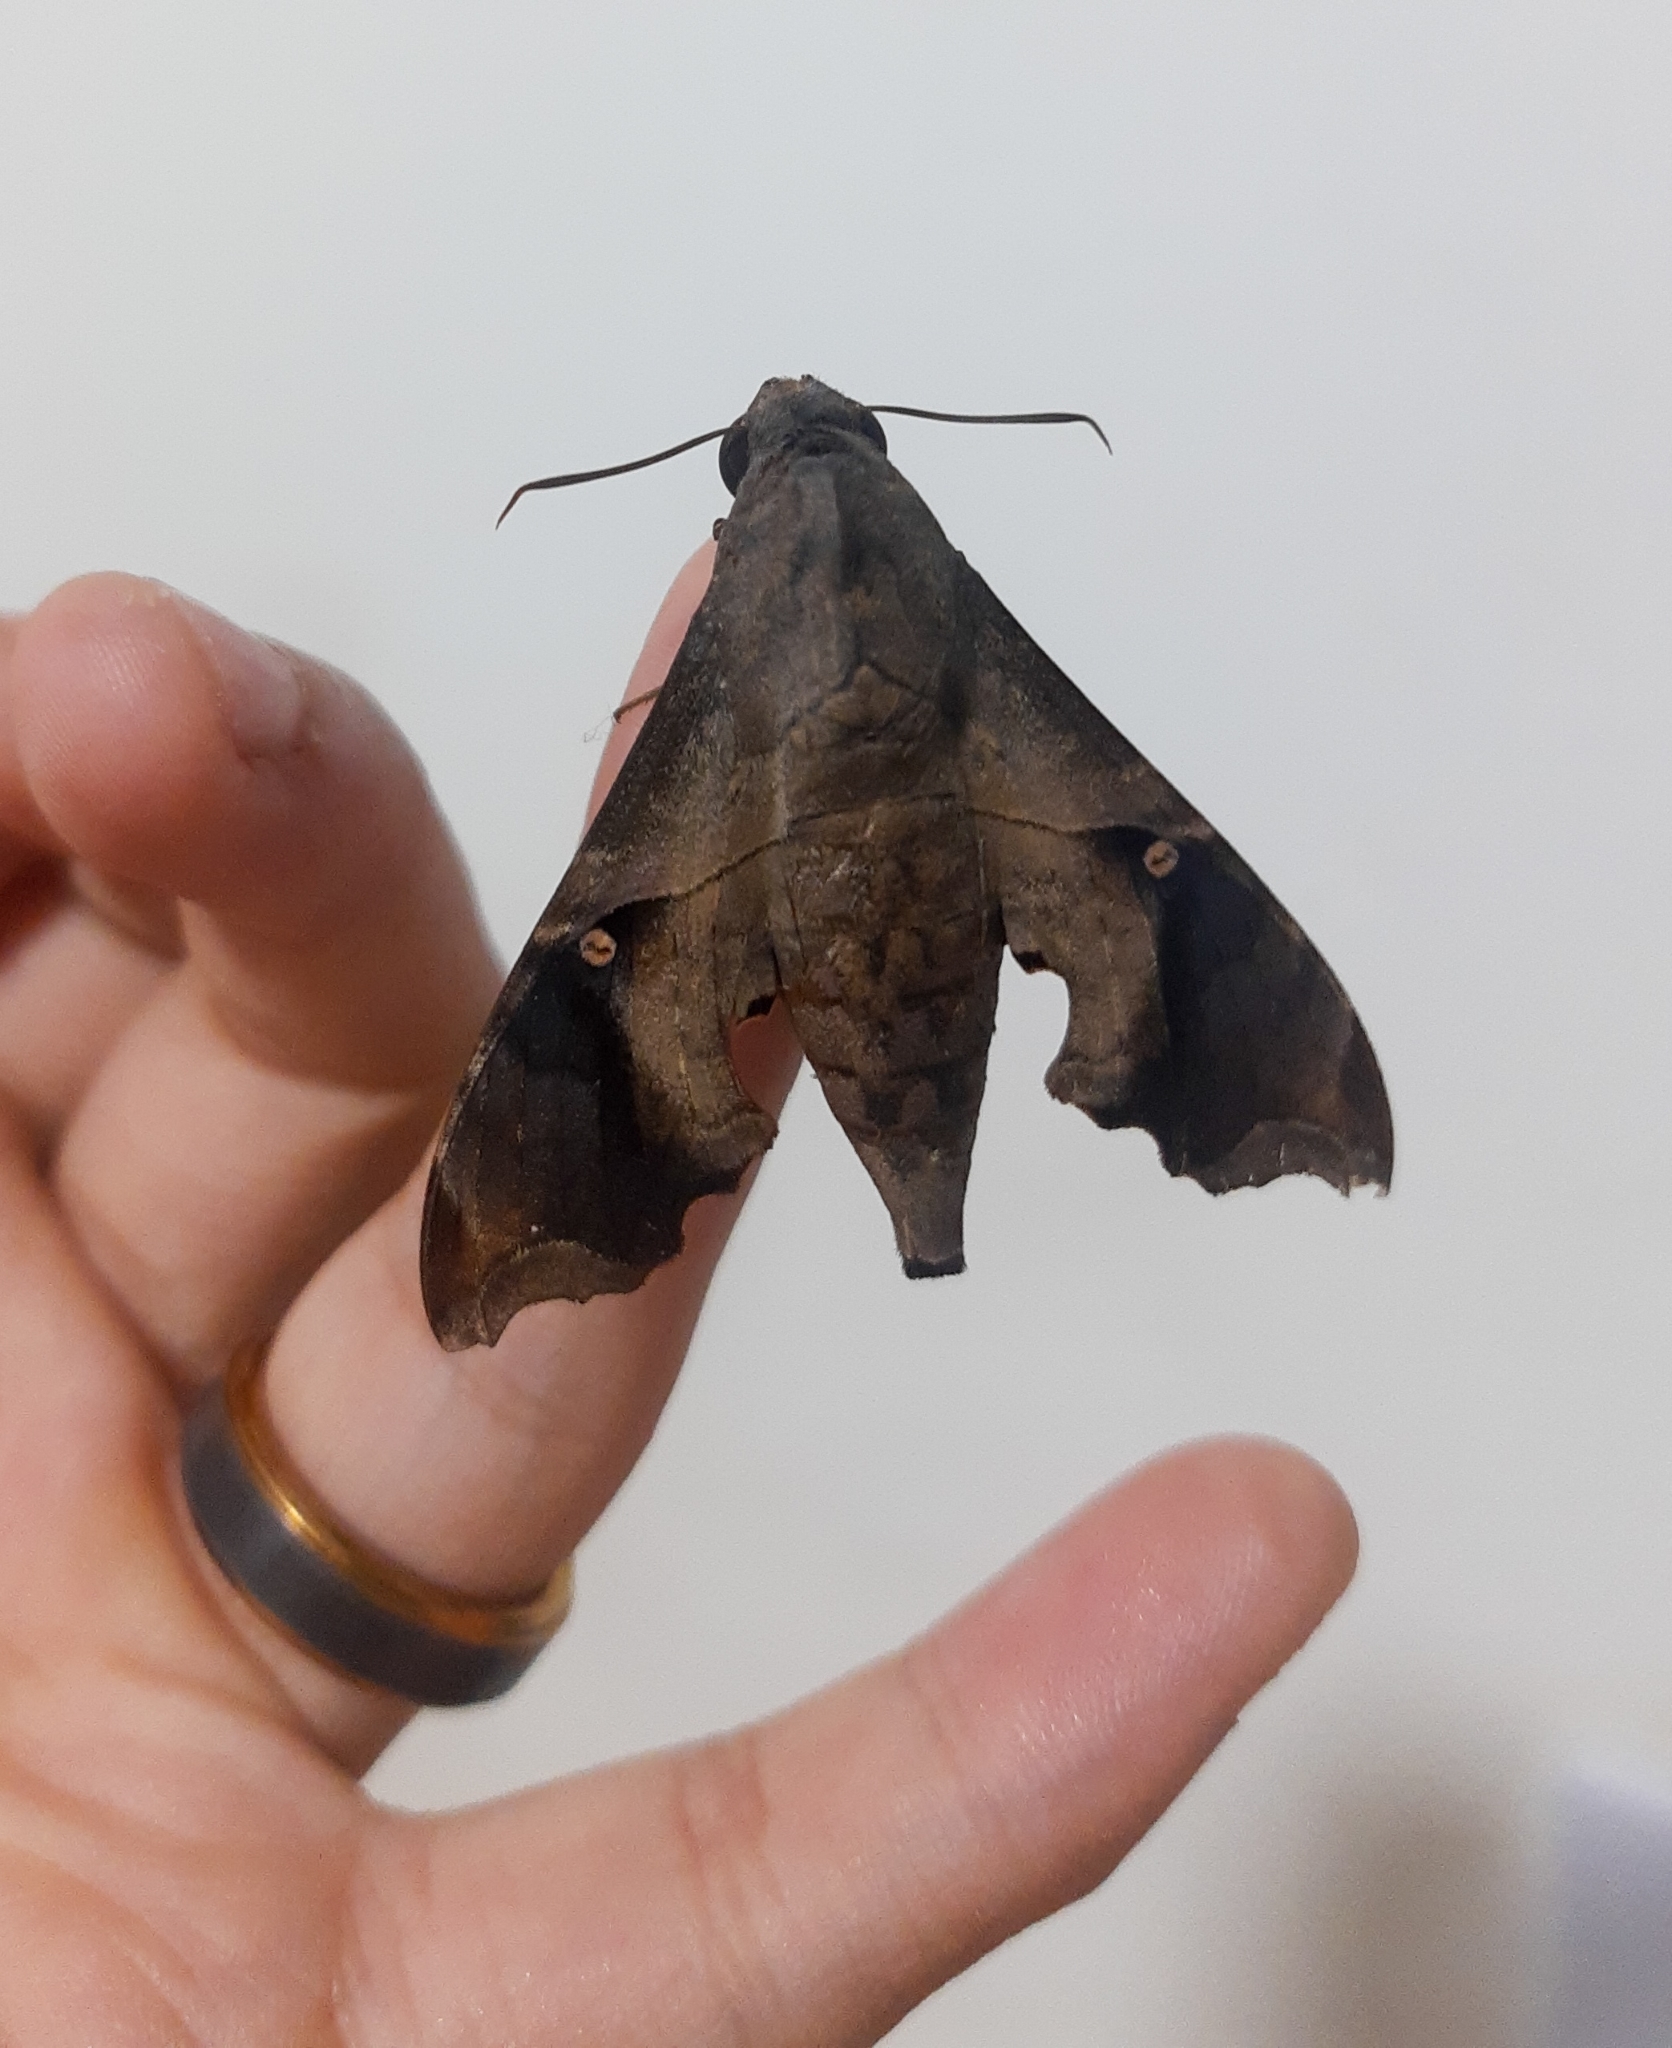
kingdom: Animalia
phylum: Arthropoda
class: Insecta
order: Lepidoptera
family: Sphingidae
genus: Enyo
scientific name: Enyo lugubris
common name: Mournful sphinx
